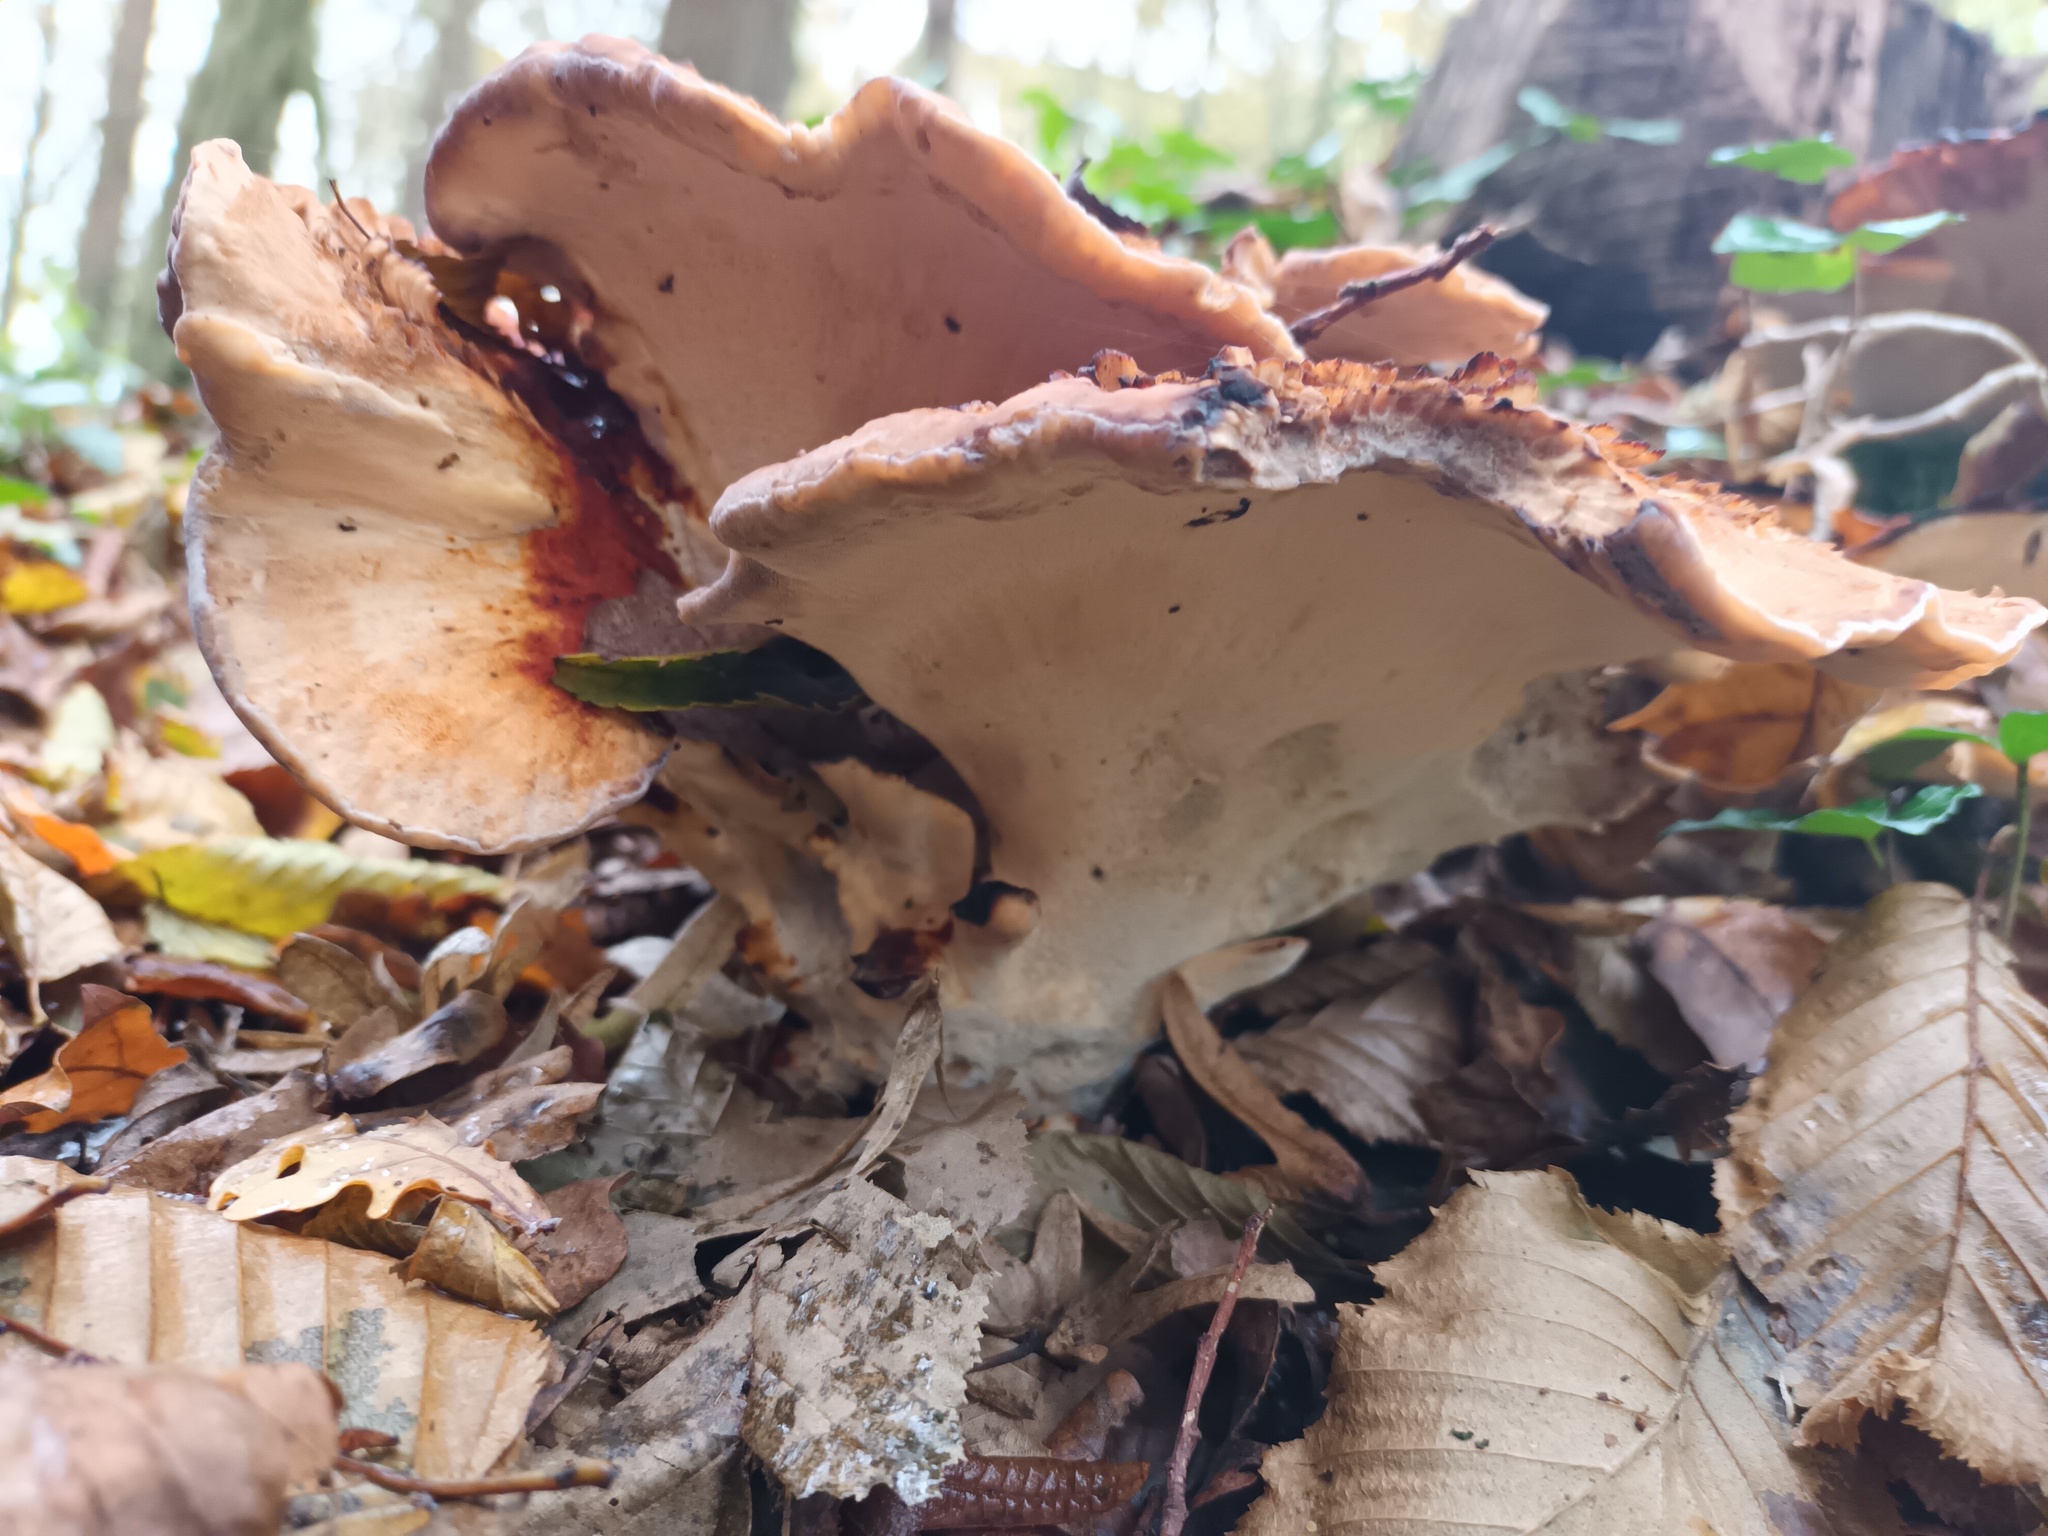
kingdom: Fungi
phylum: Basidiomycota
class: Agaricomycetes
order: Polyporales
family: Meripilaceae
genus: Meripilus
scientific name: Meripilus giganteus
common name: Giant polypore
